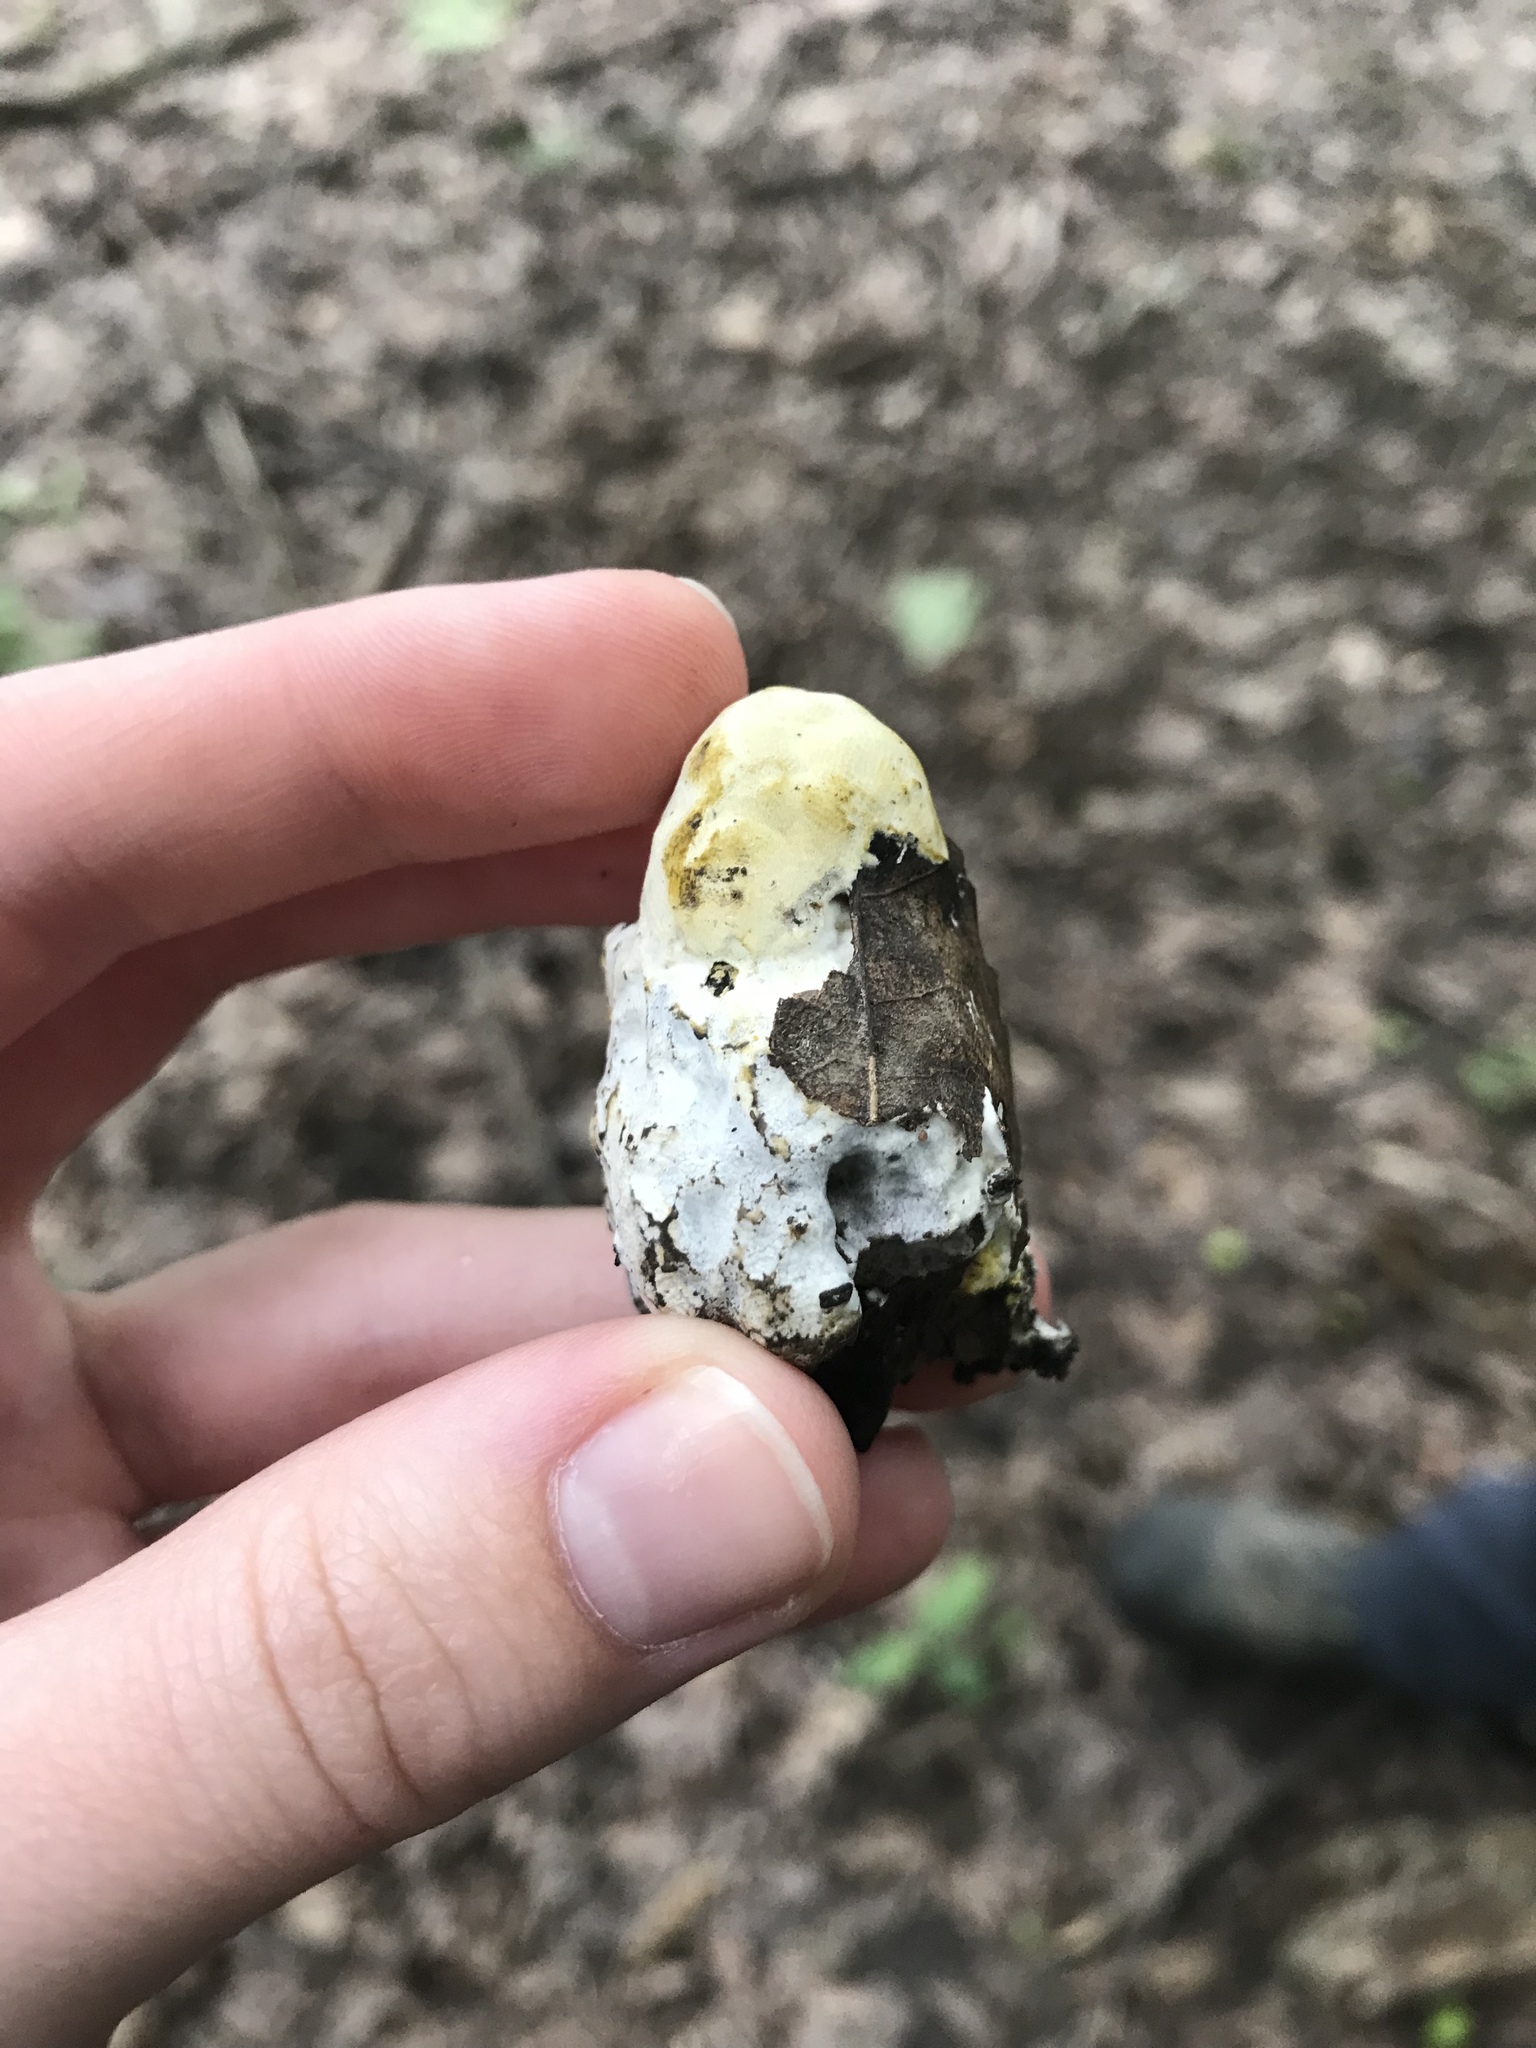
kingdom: Fungi
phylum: Ascomycota
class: Sordariomycetes
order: Hypocreales
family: Hypocreaceae
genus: Hypomyces
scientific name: Hypomyces chrysospermus
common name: Bolete mould
